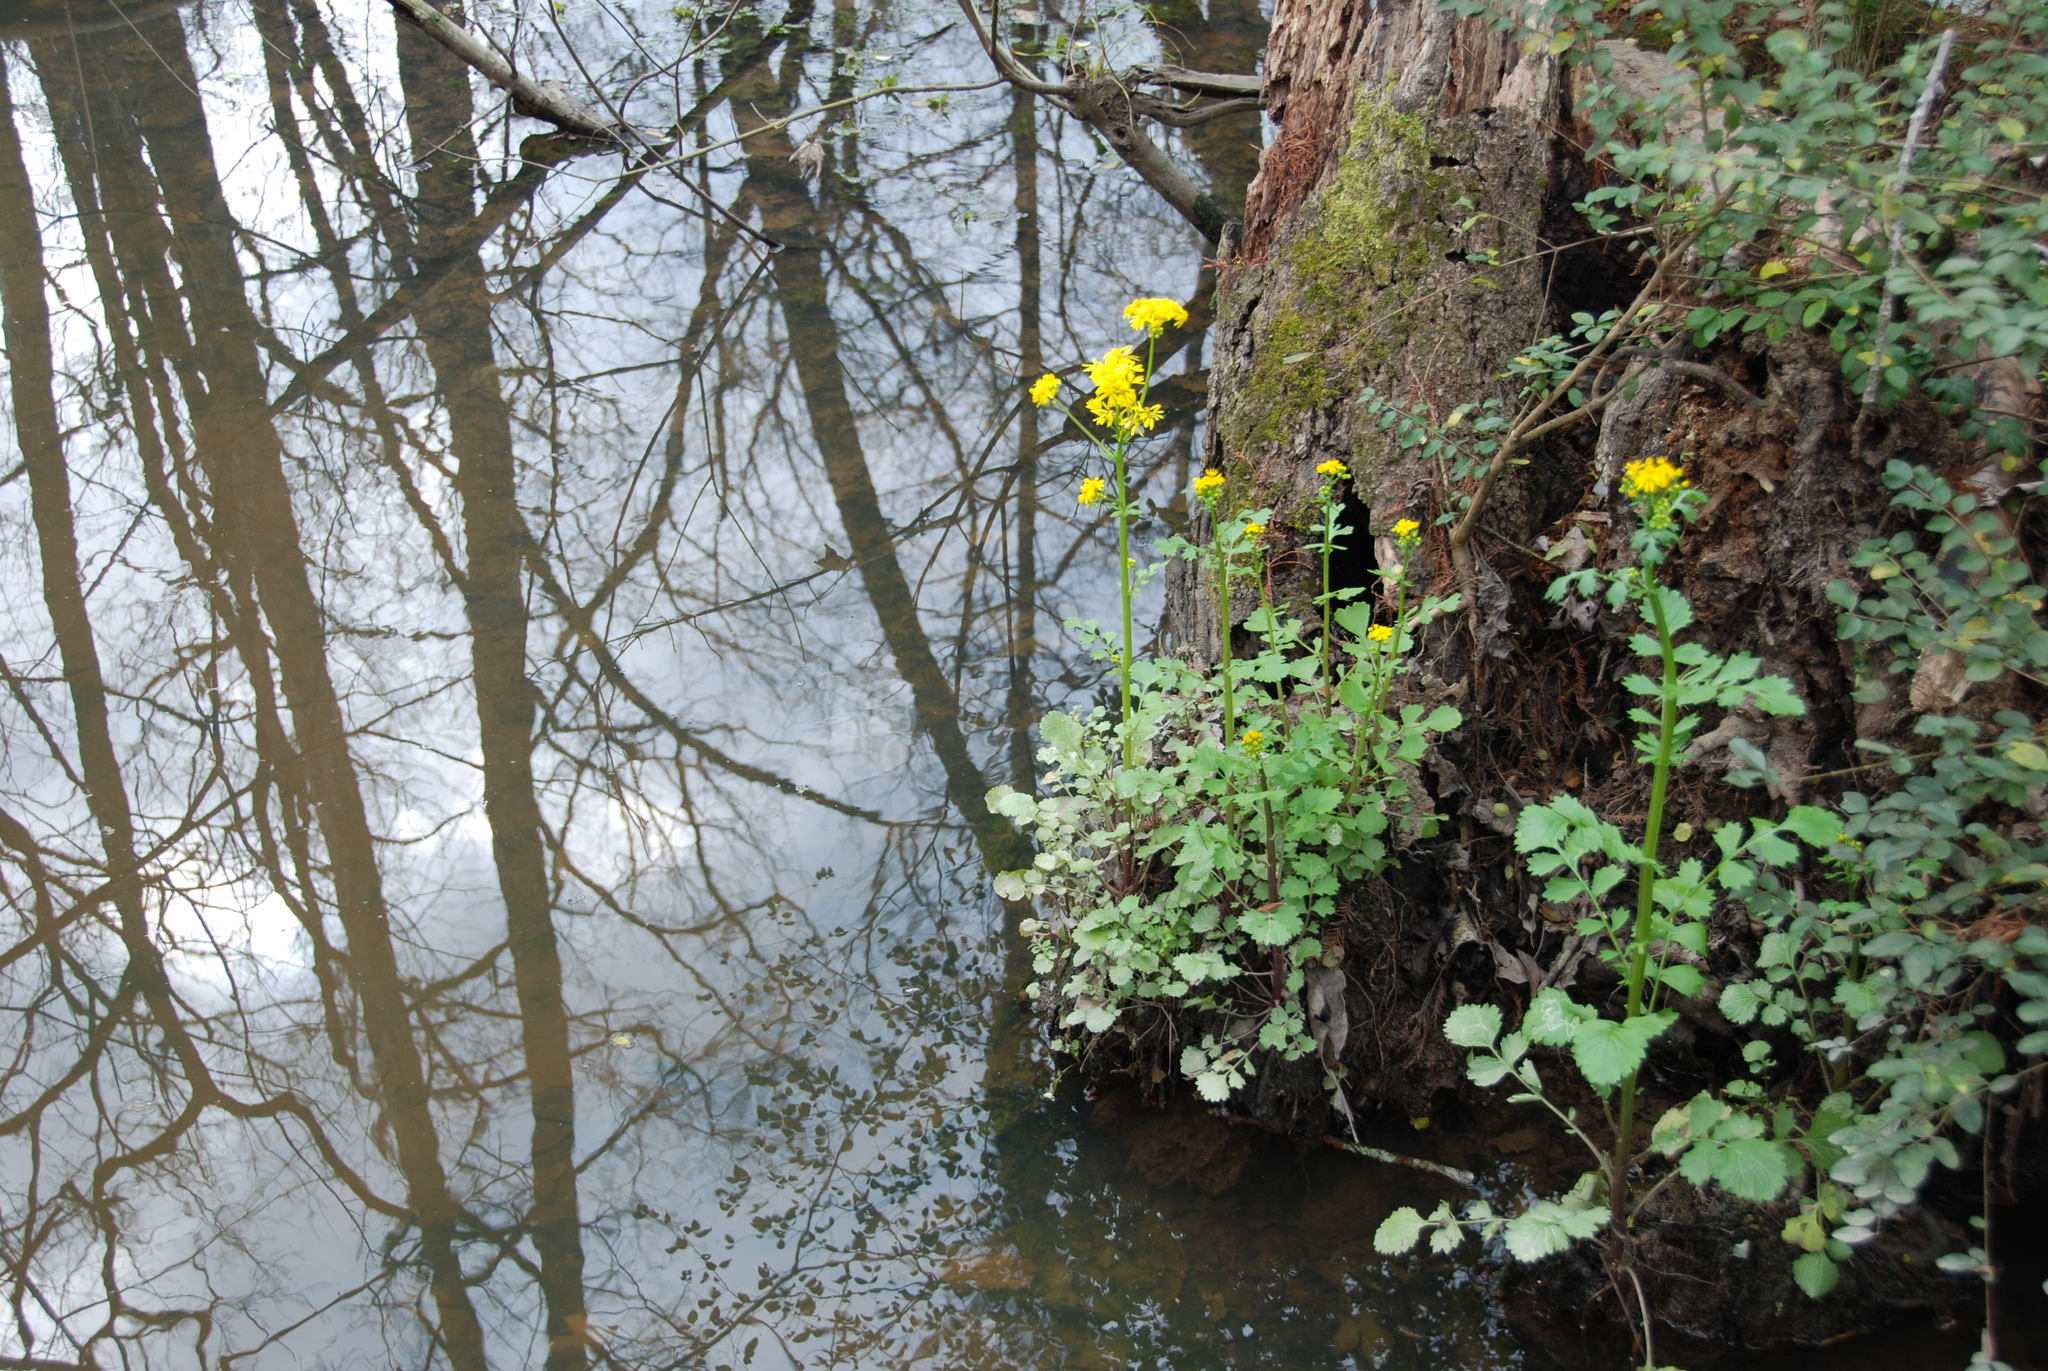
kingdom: Plantae
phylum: Tracheophyta
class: Magnoliopsida
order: Asterales
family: Asteraceae
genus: Packera
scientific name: Packera glabella
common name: Butterweed
